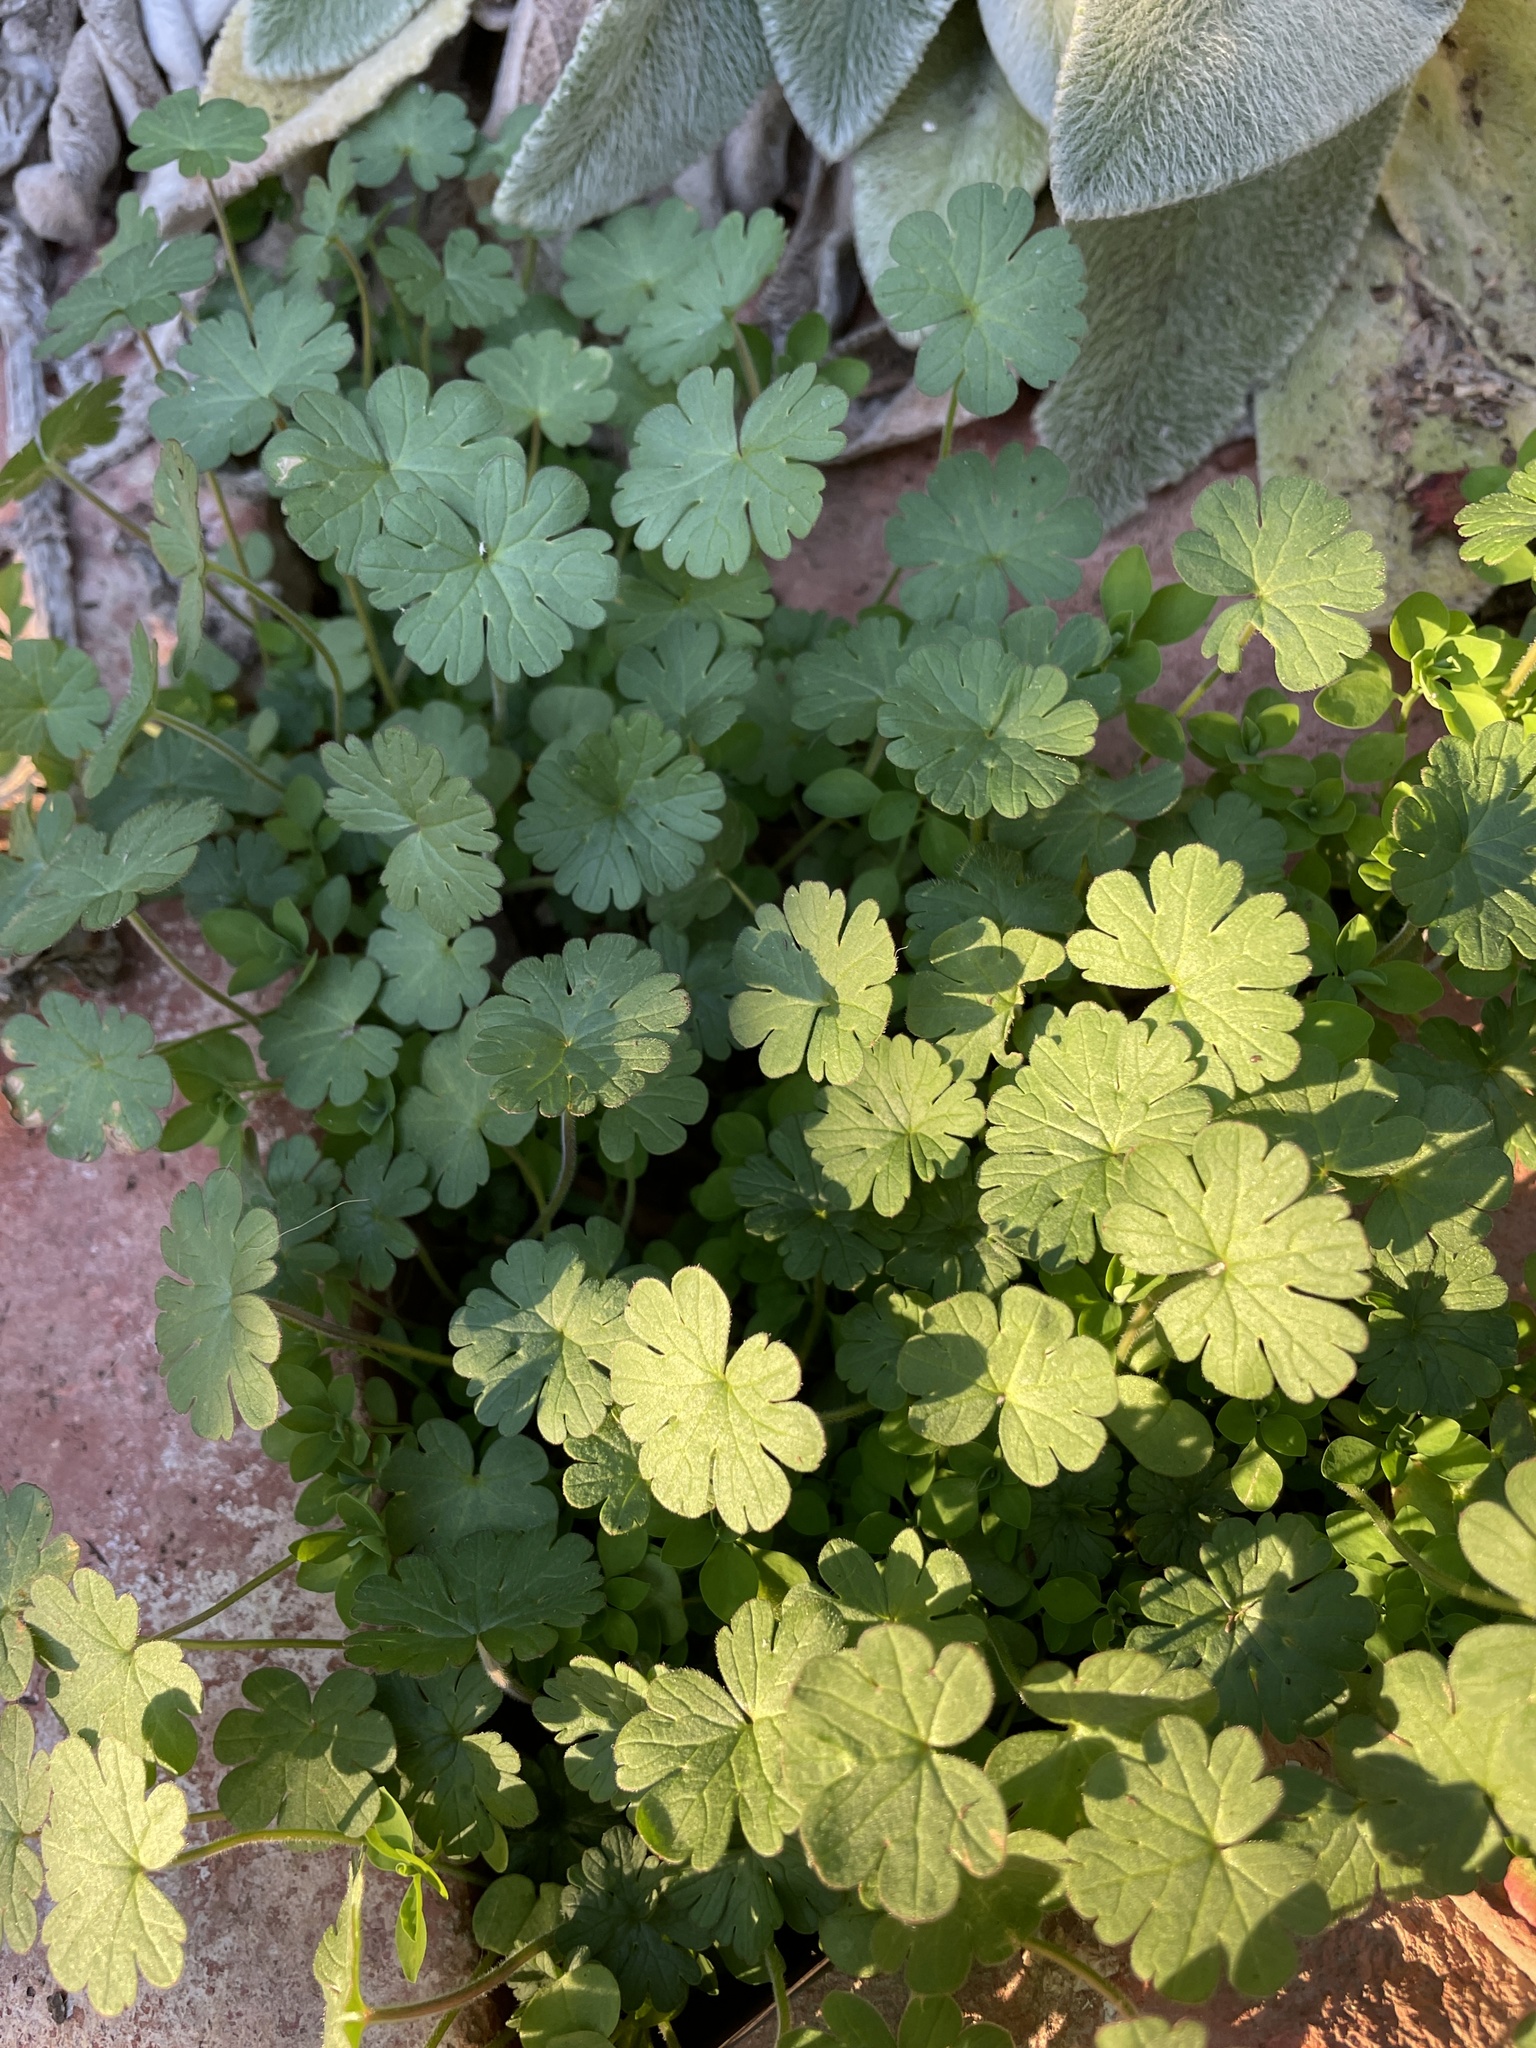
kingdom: Plantae
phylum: Tracheophyta
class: Magnoliopsida
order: Geraniales
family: Geraniaceae
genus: Geranium
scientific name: Geranium
